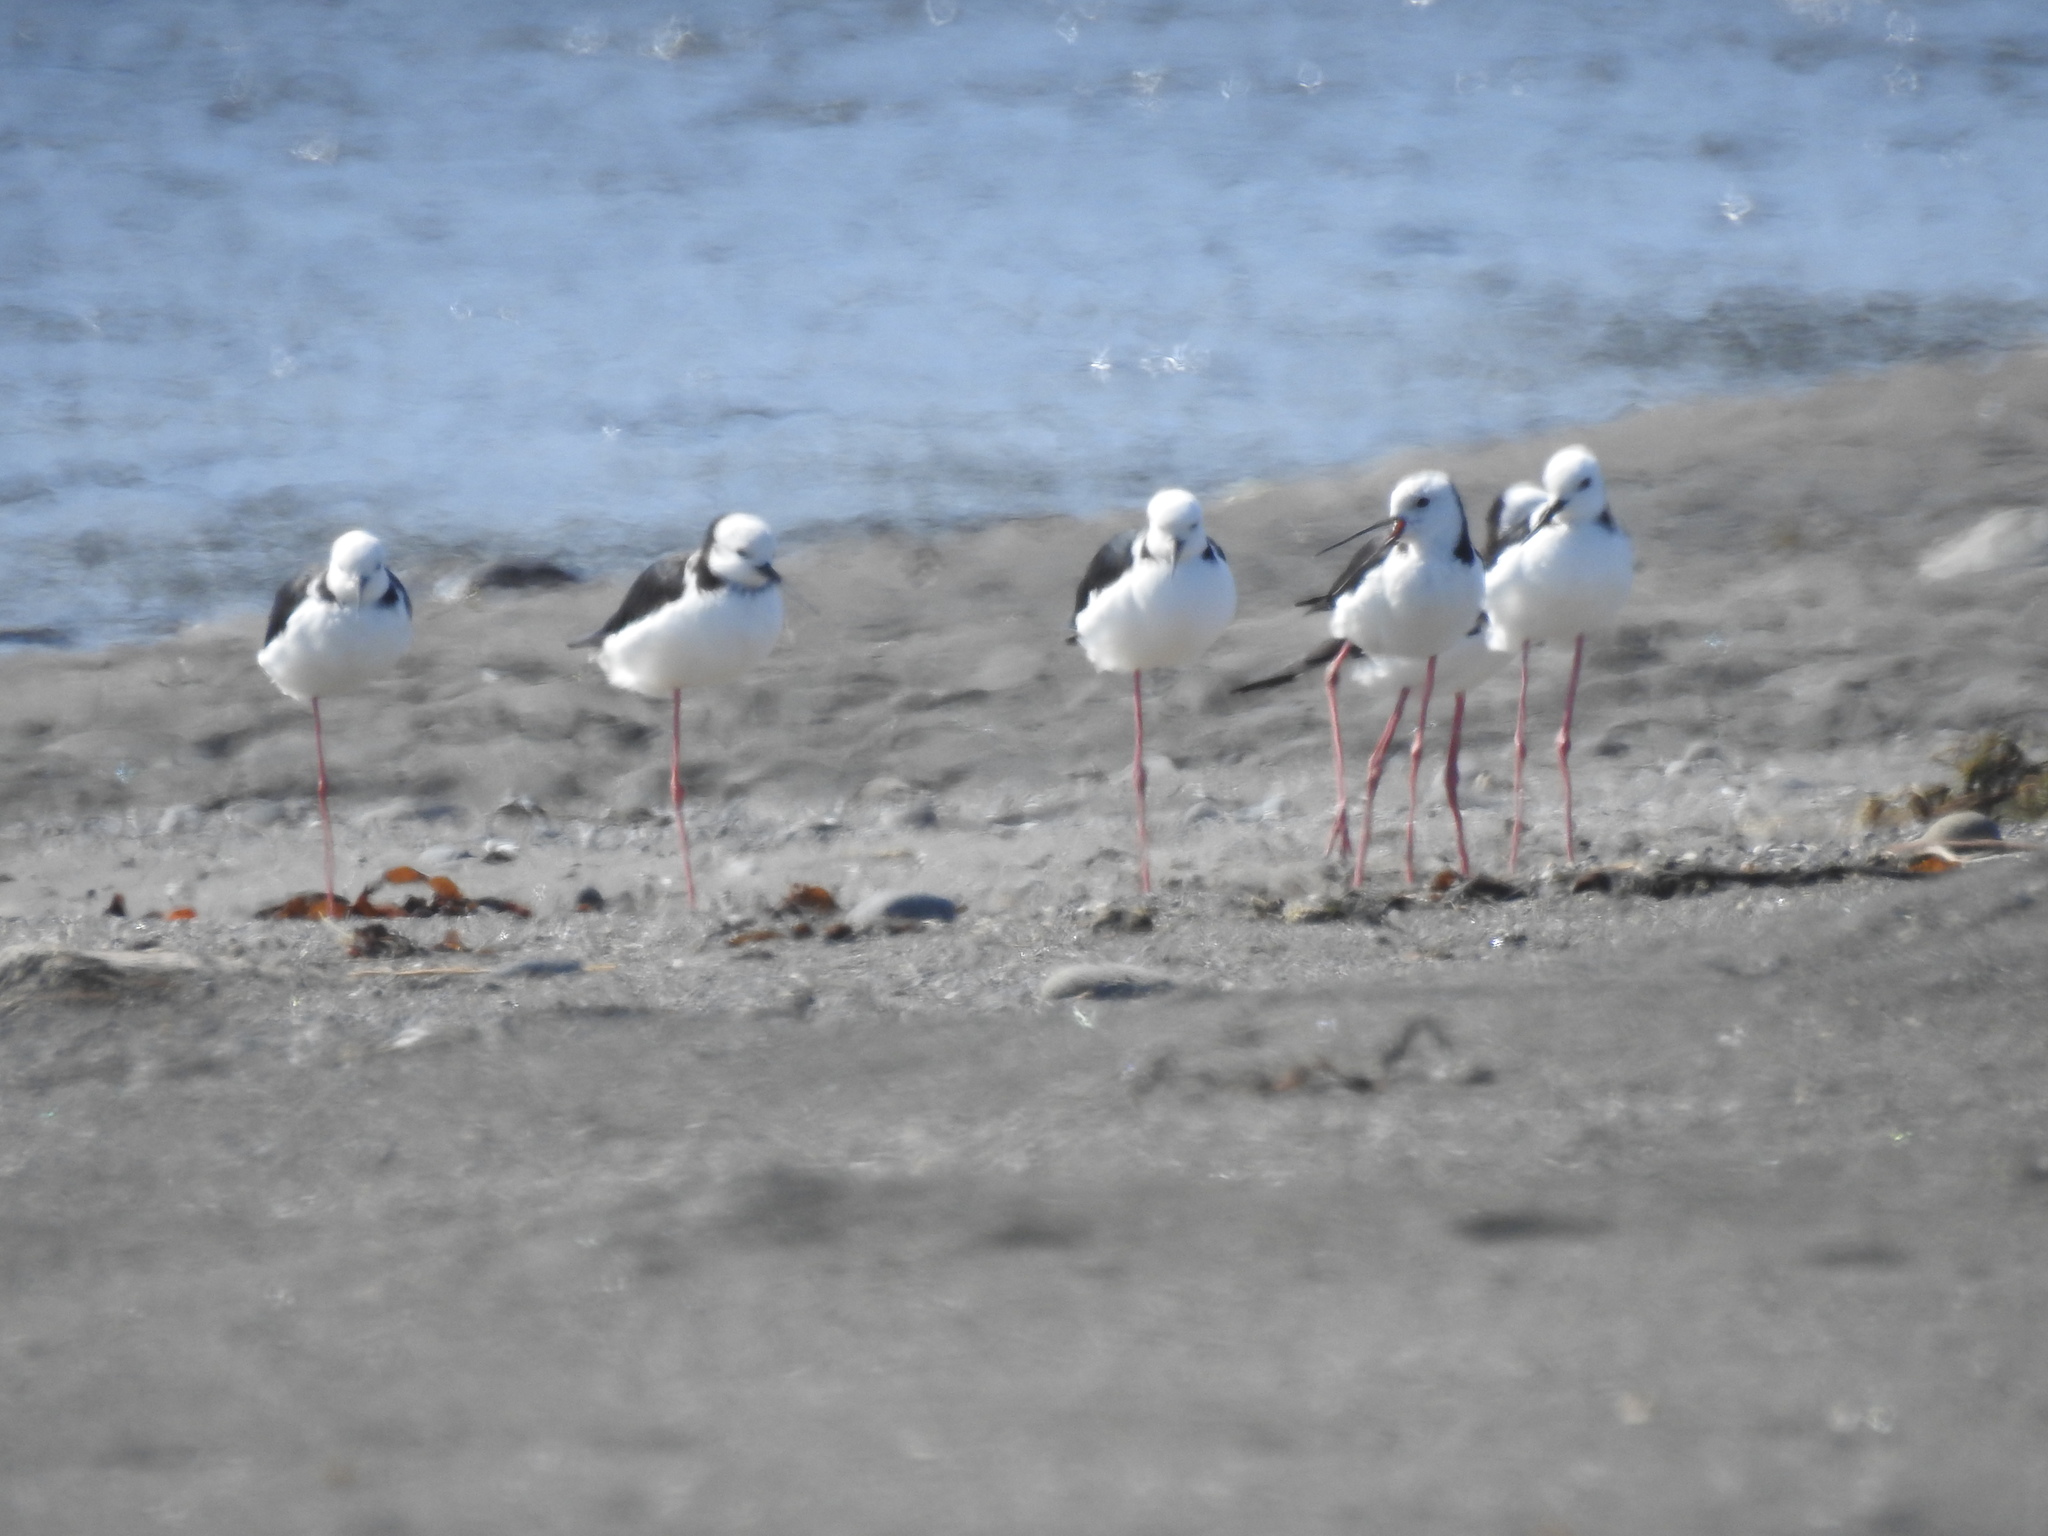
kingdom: Animalia
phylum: Chordata
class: Aves
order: Charadriiformes
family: Recurvirostridae
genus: Himantopus
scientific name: Himantopus leucocephalus
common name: White-headed stilt
